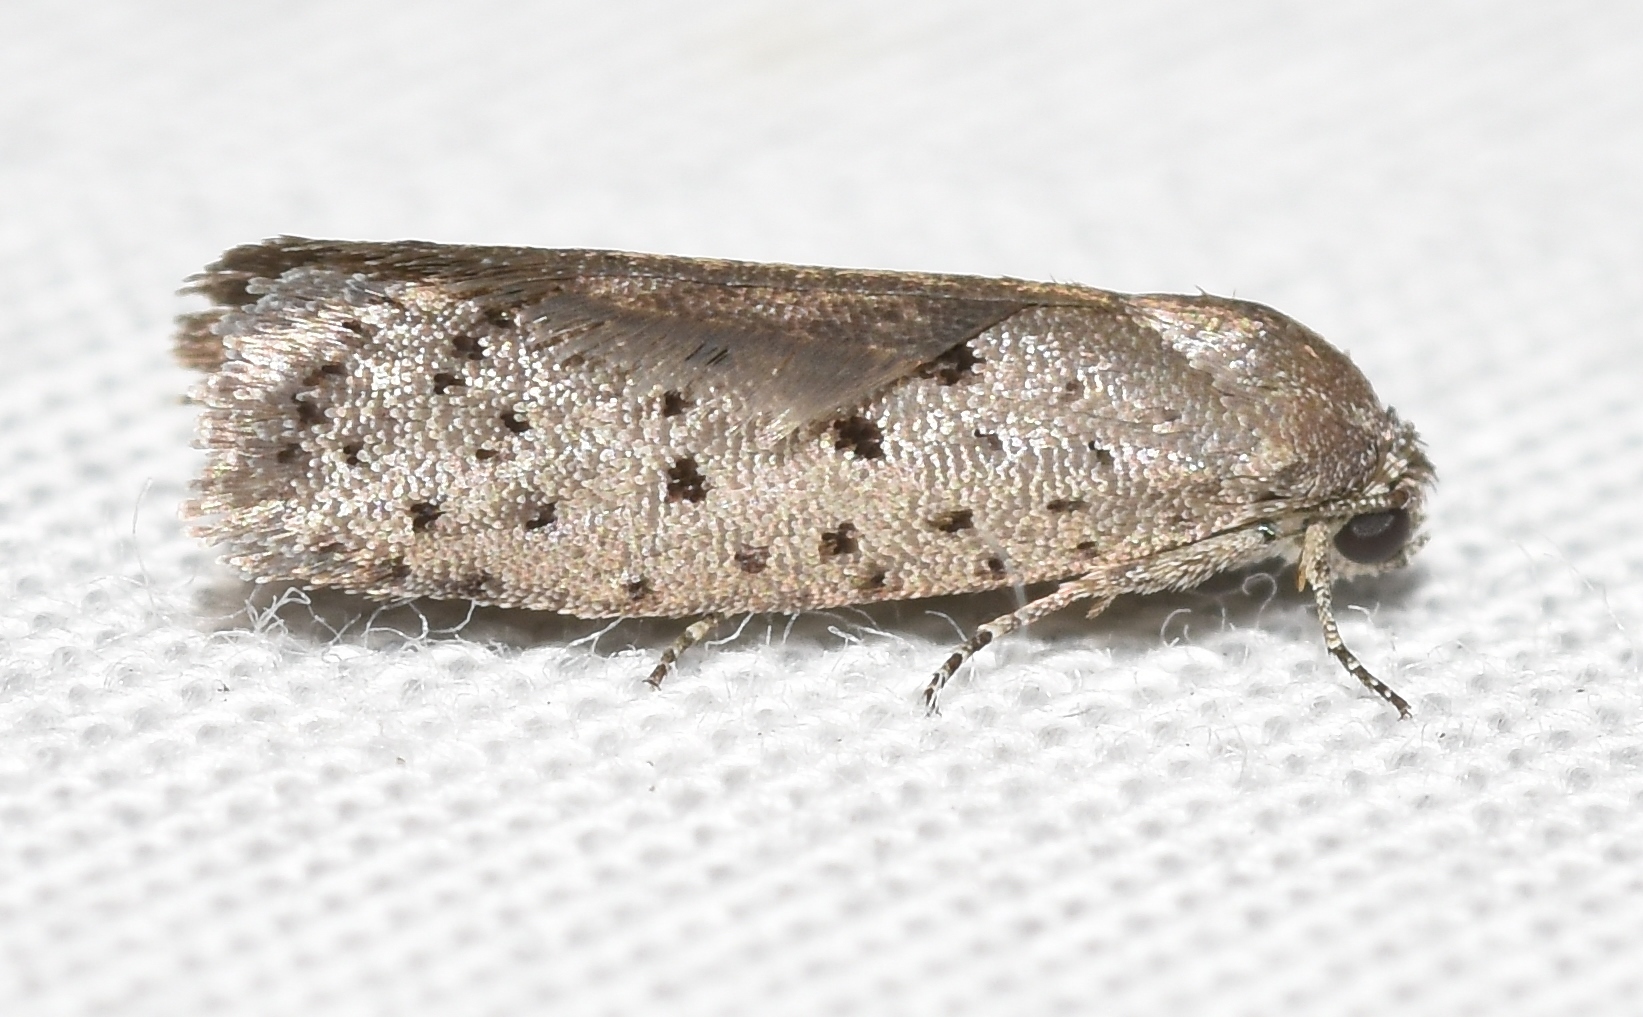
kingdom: Animalia
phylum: Arthropoda
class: Insecta
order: Lepidoptera
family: Galacticidae
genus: Homadaula
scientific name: Homadaula anisocentra
